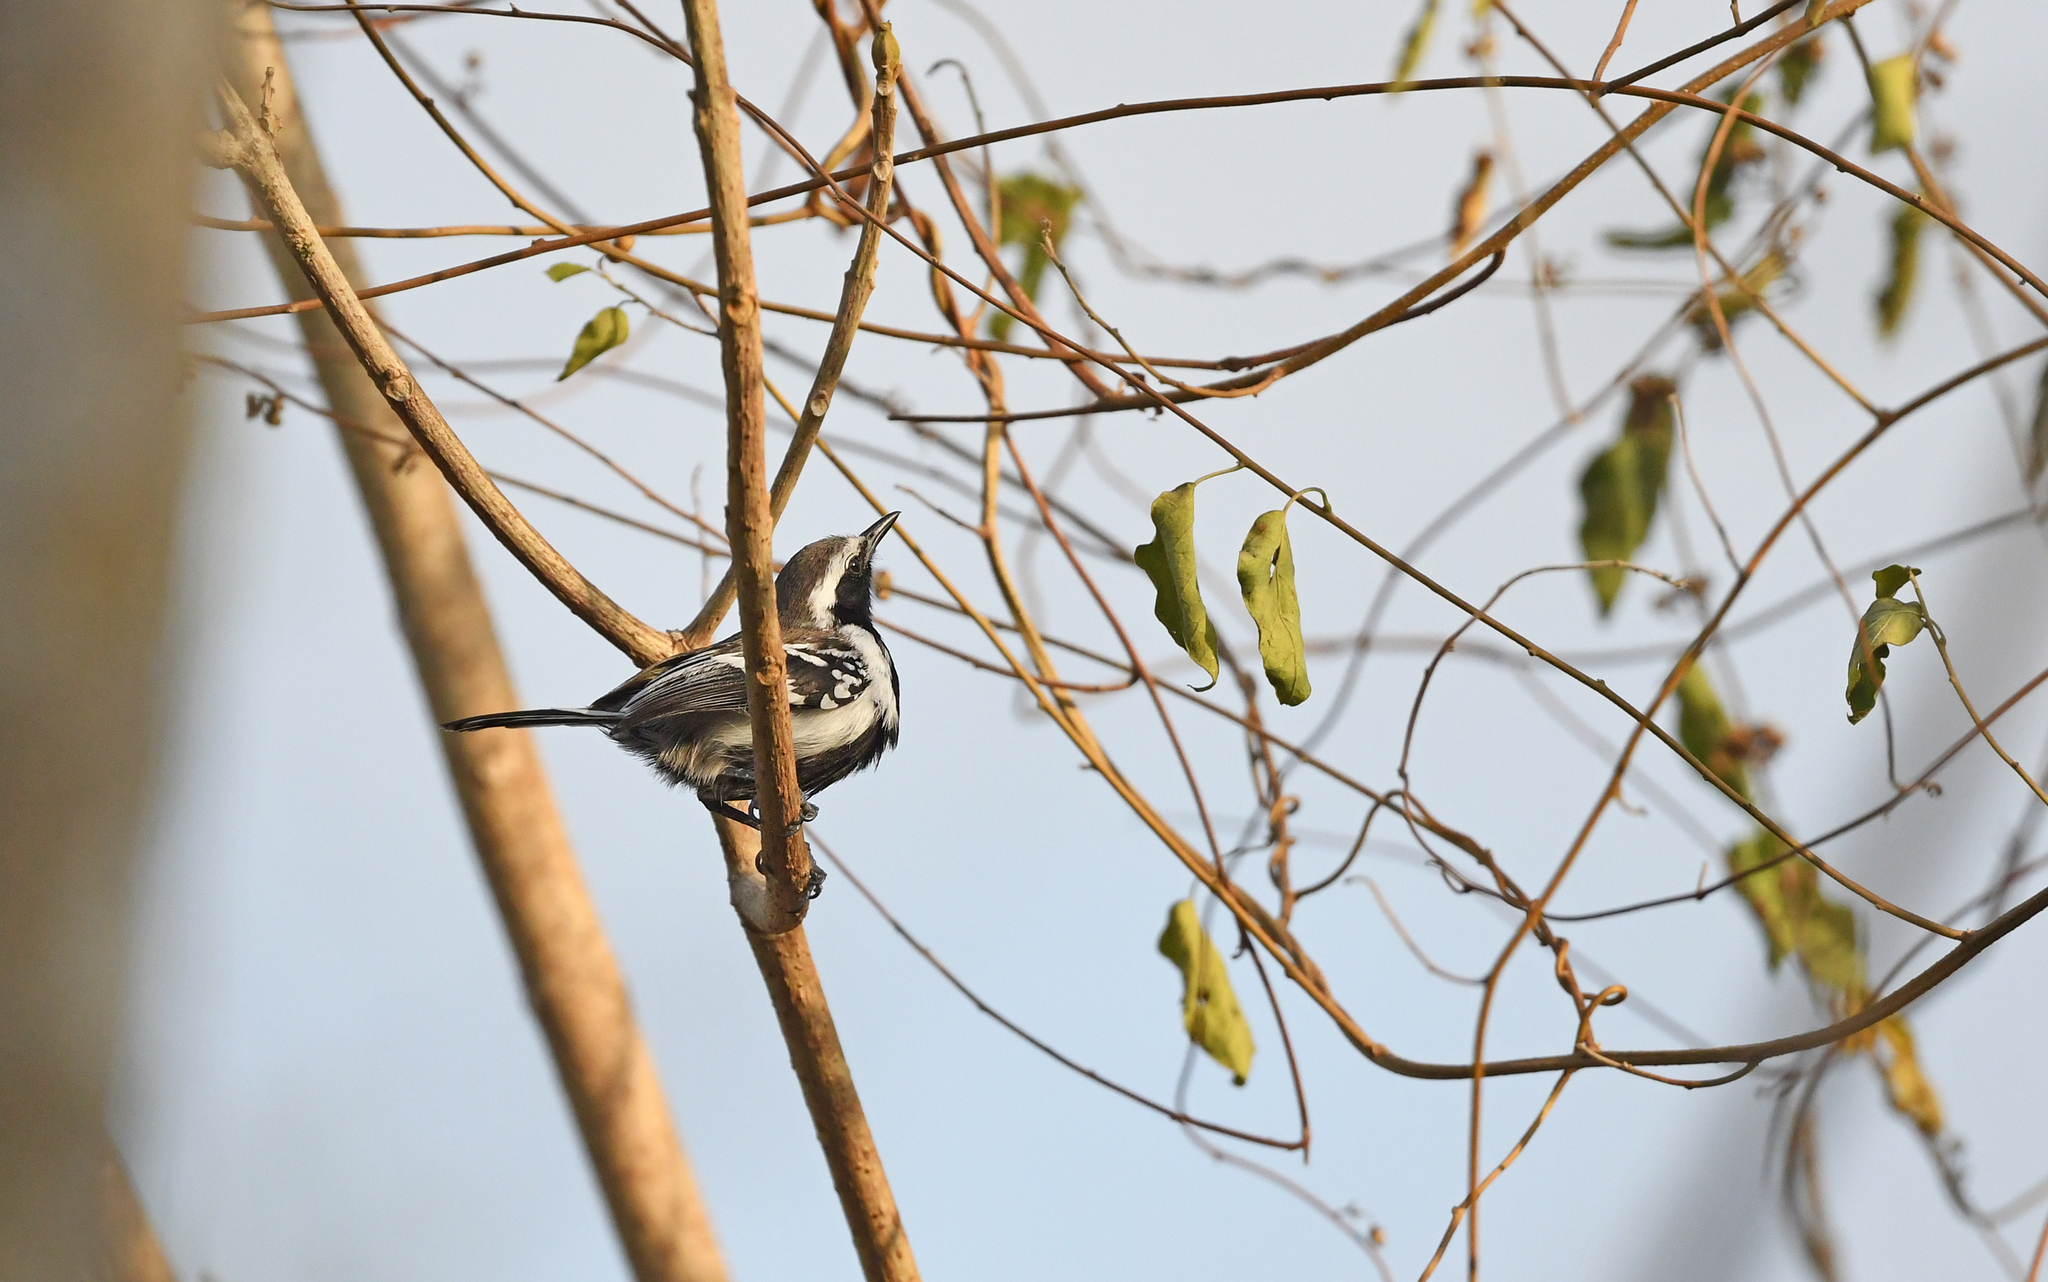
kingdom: Animalia
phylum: Chordata
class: Aves
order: Passeriformes
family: Thamnophilidae
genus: Formicivora
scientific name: Formicivora intermedia
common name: Northern white-fringed antwren
